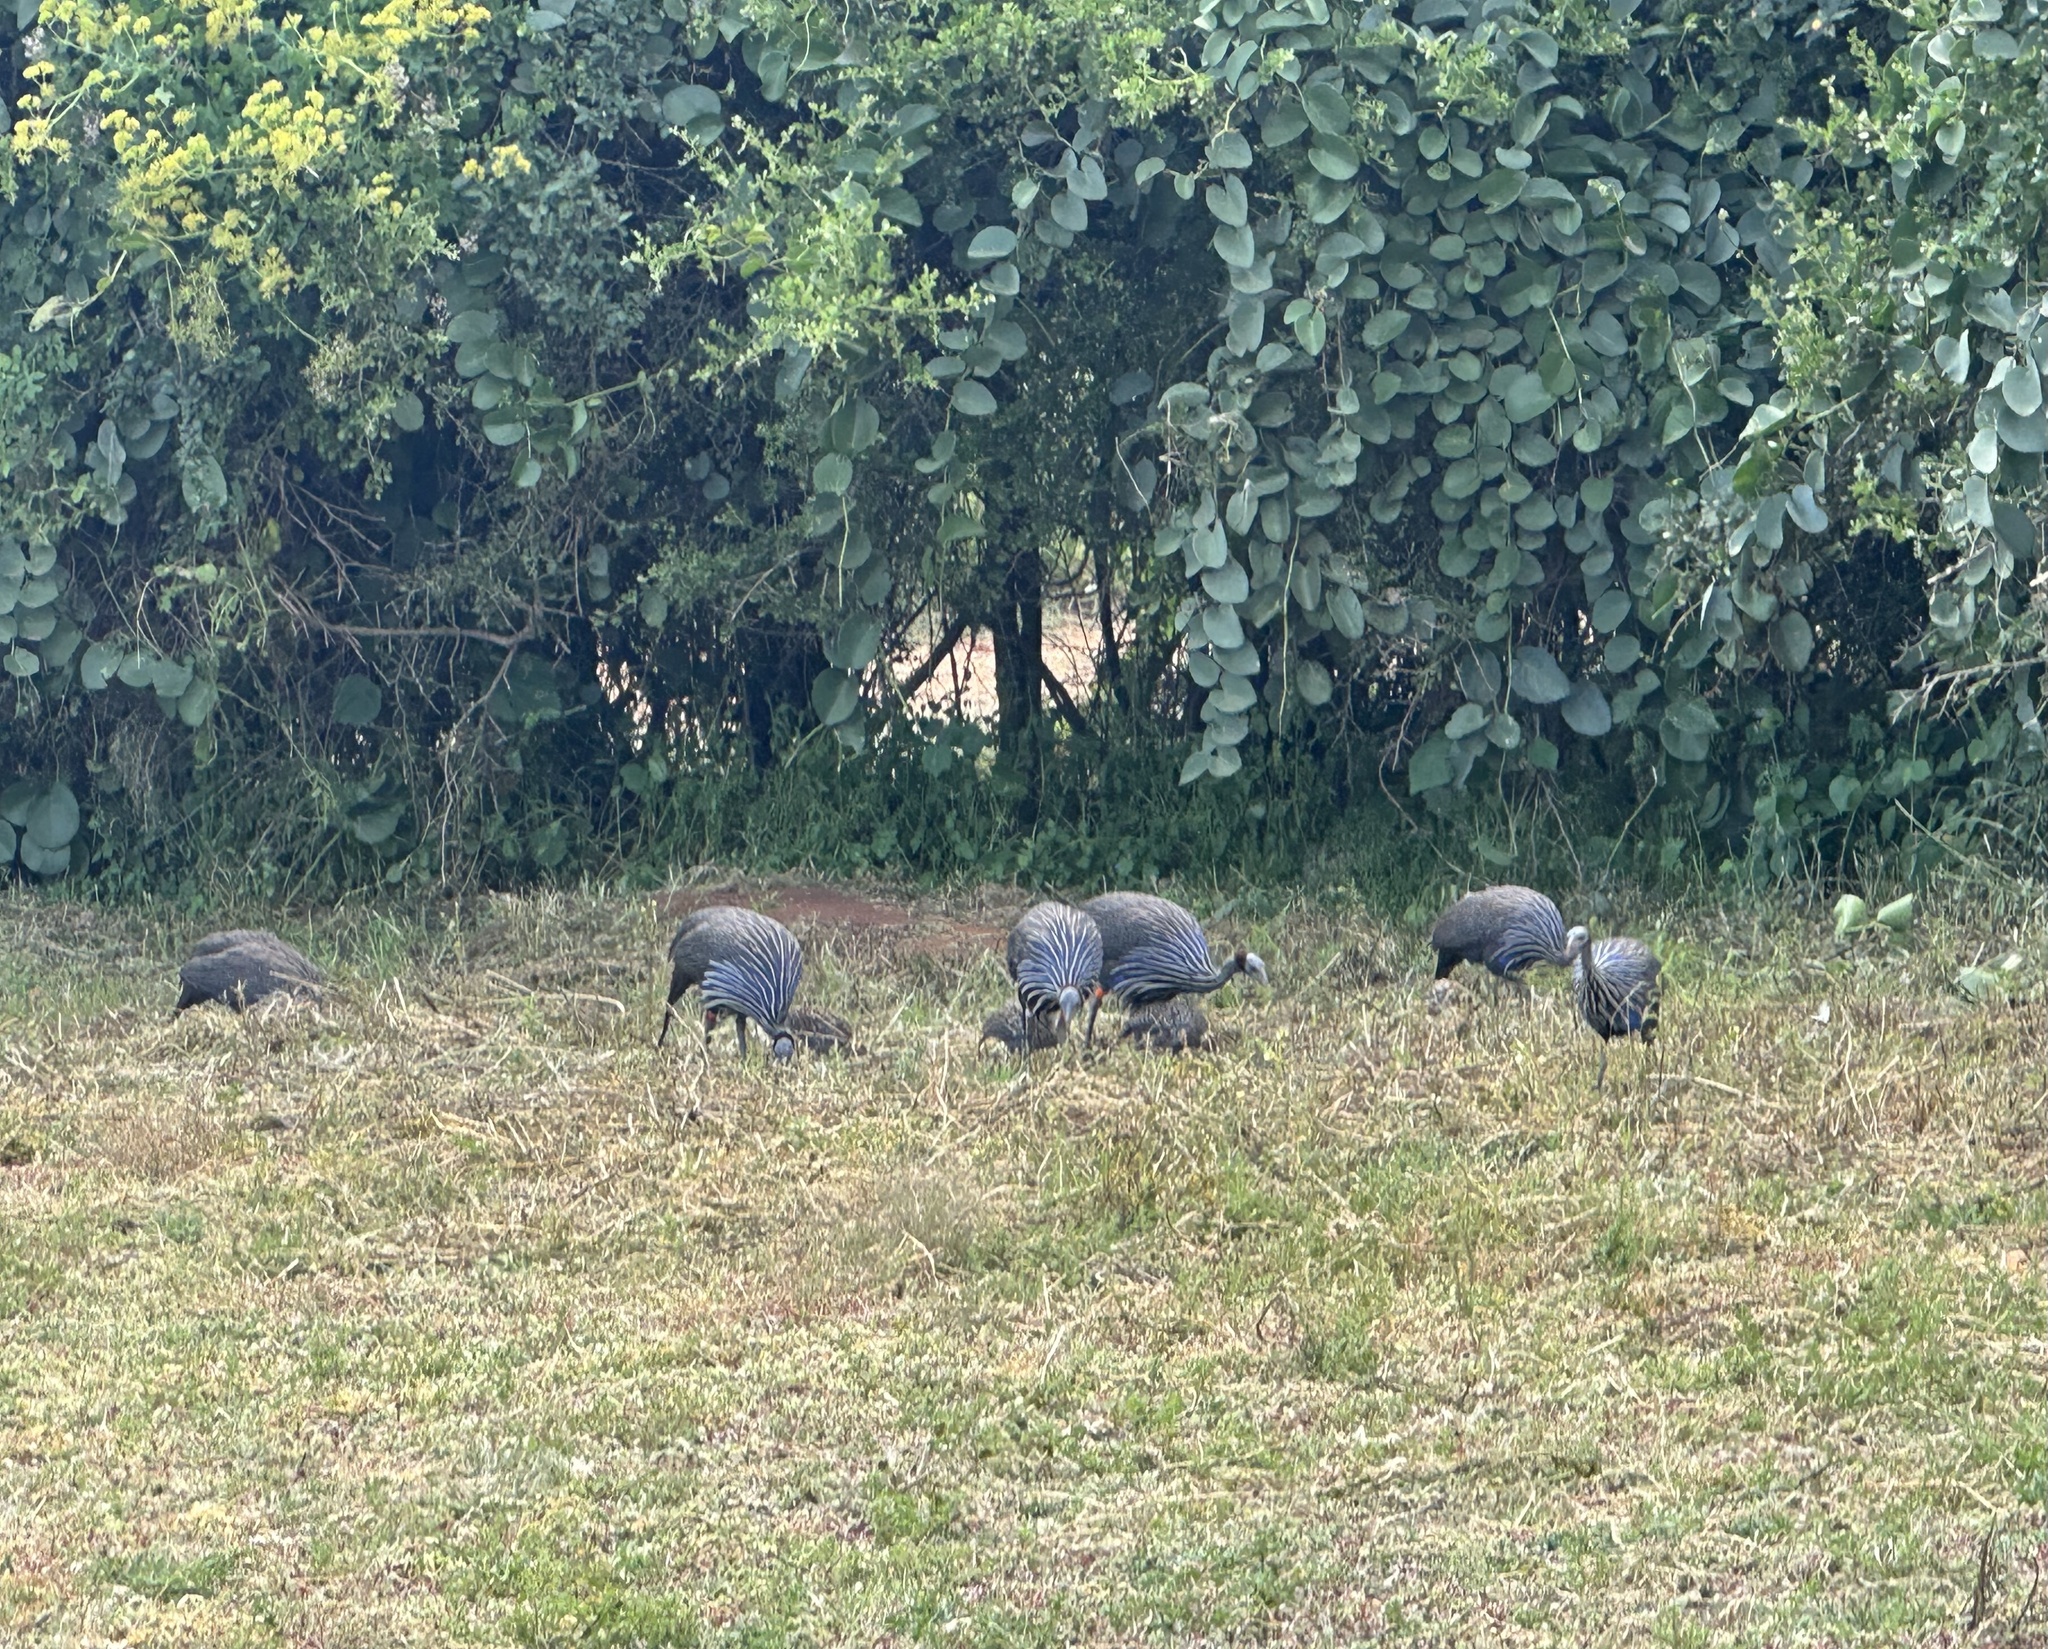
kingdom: Animalia
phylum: Chordata
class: Aves
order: Galliformes
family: Numididae
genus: Acryllium
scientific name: Acryllium vulturinum
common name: Vulturine guineafowl
